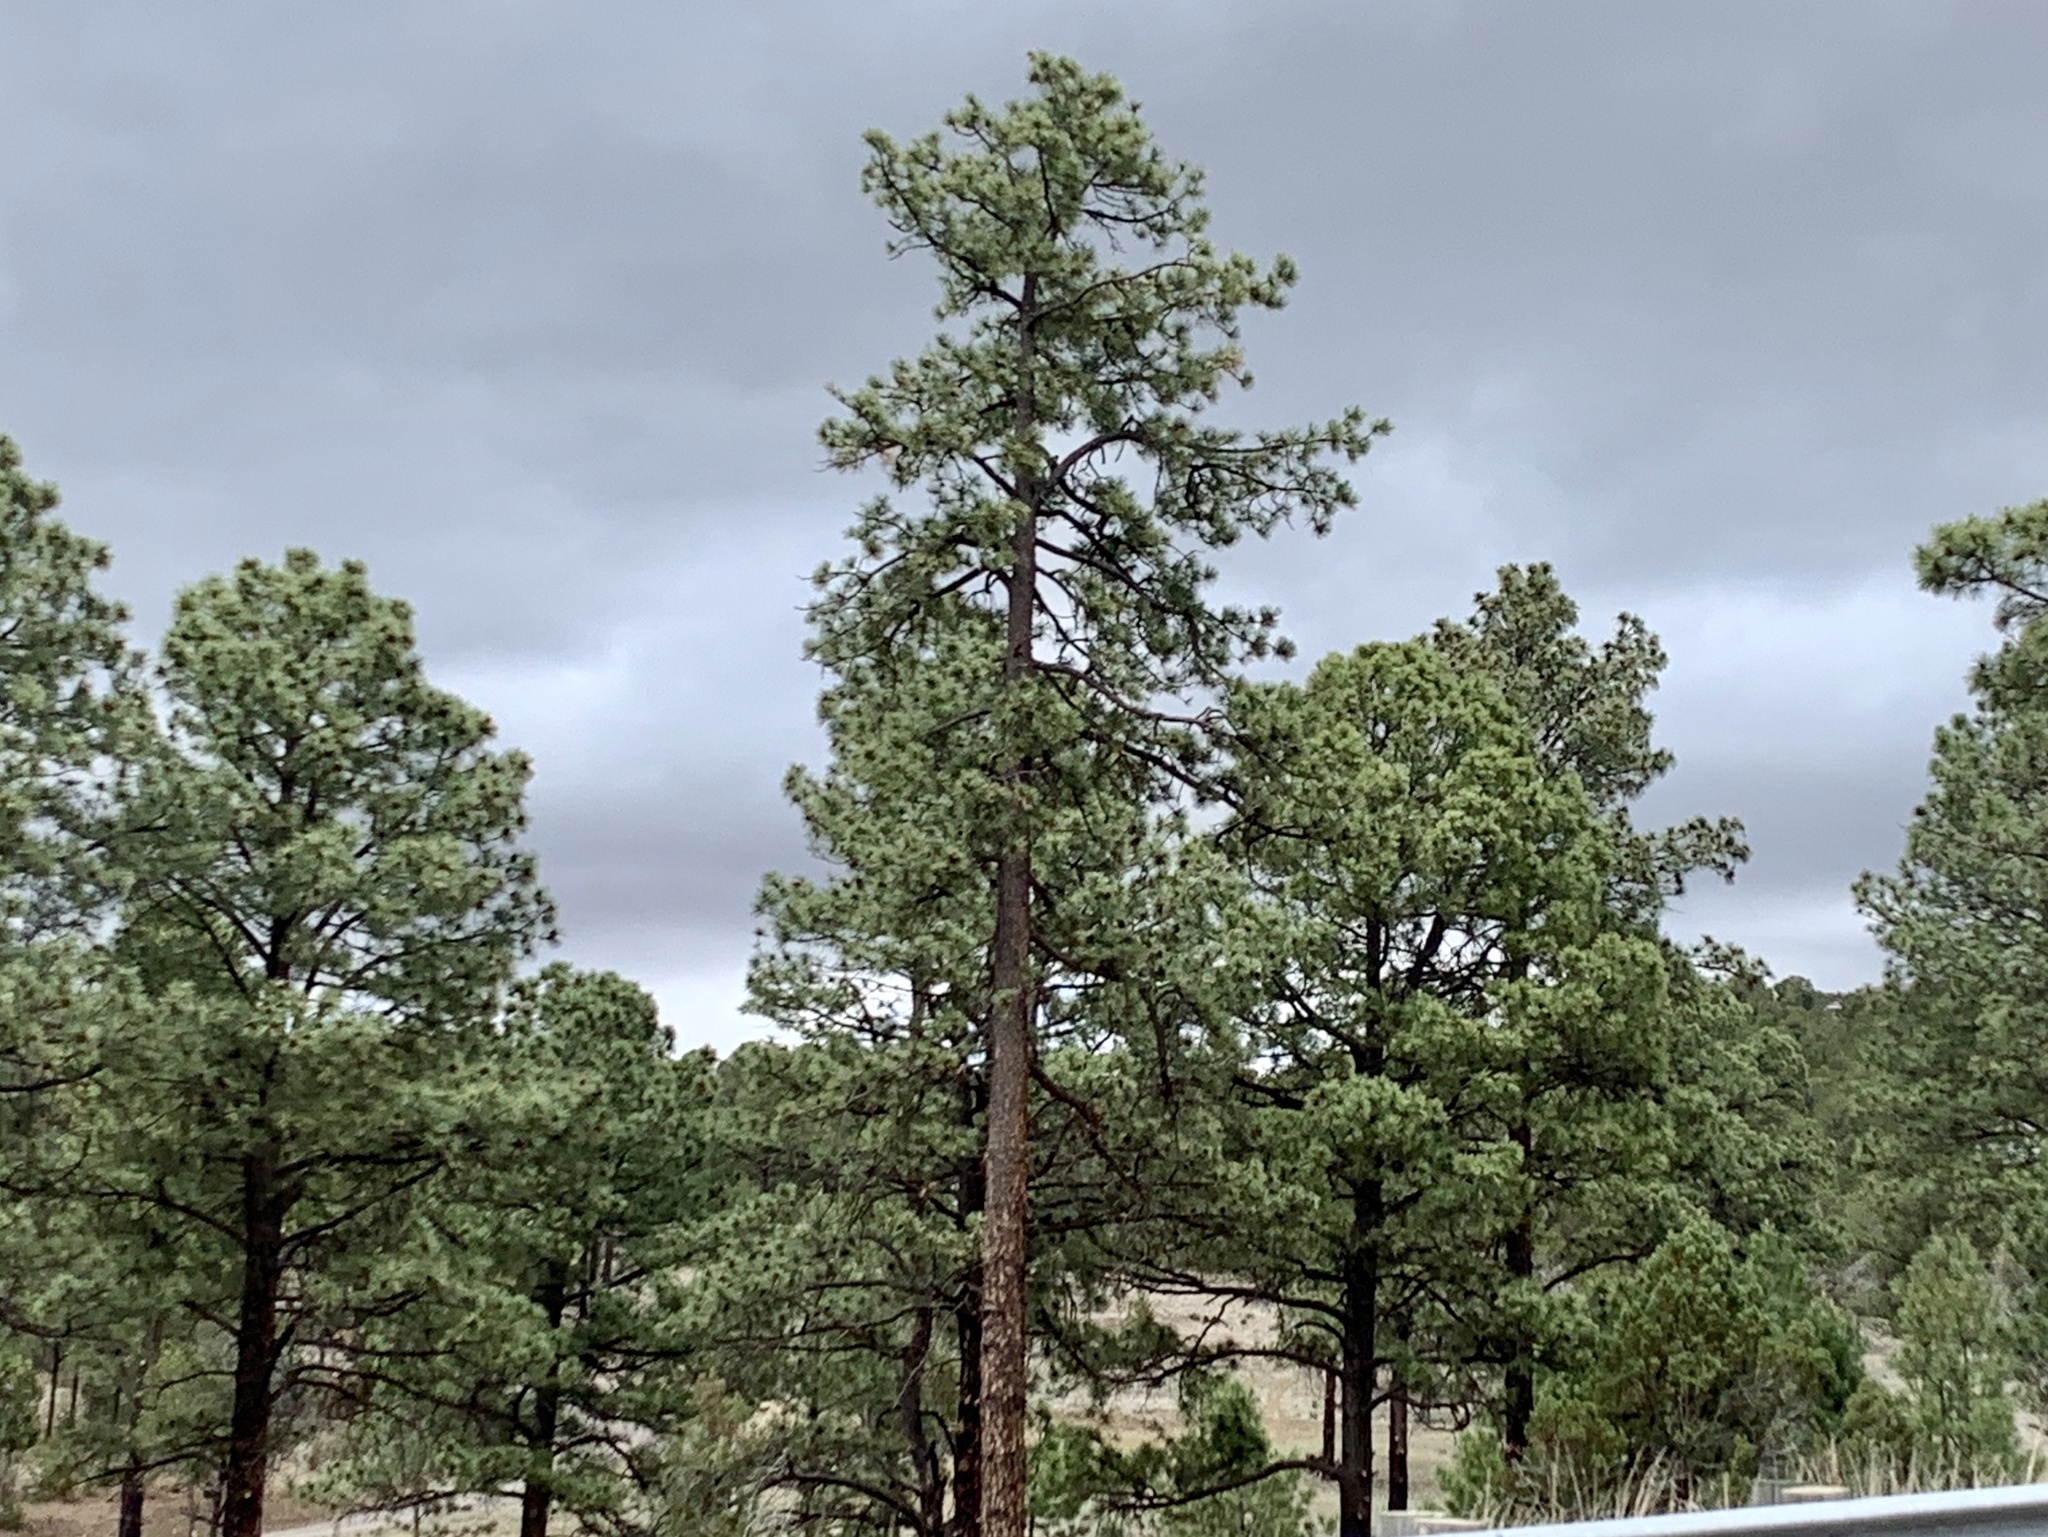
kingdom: Plantae
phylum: Tracheophyta
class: Pinopsida
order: Pinales
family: Pinaceae
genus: Pinus
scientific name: Pinus ponderosa
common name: Western yellow-pine
